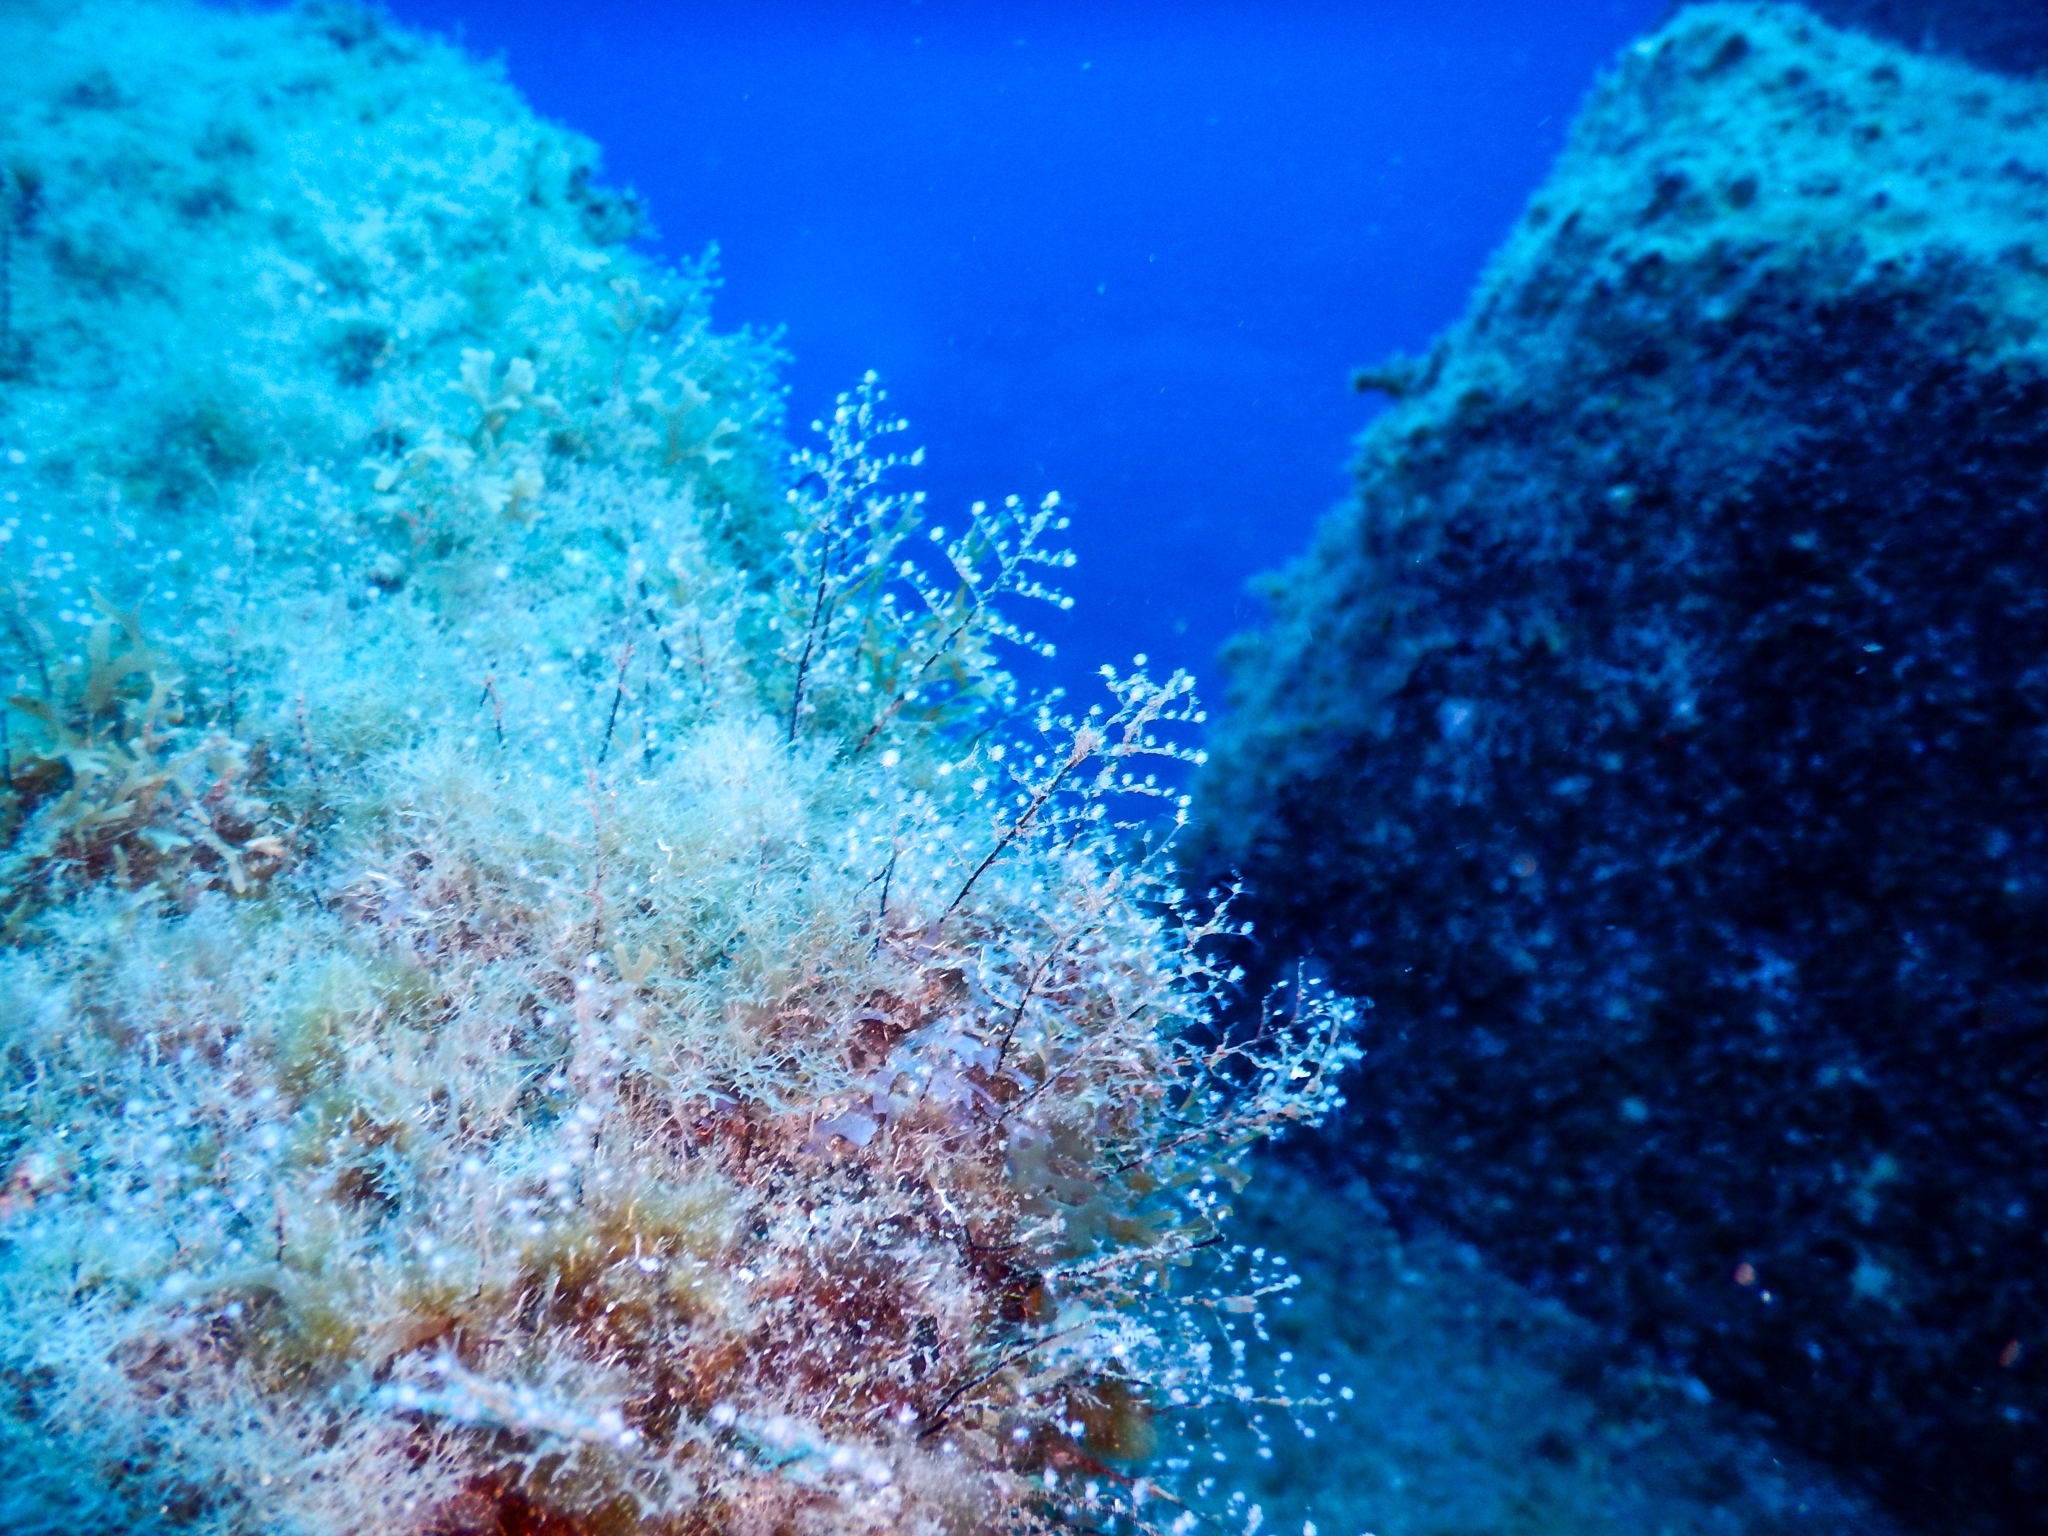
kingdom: Animalia
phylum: Cnidaria
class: Hydrozoa
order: Anthoathecata
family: Pennariidae
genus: Pennaria
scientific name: Pennaria disticha
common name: Feather hydroid
